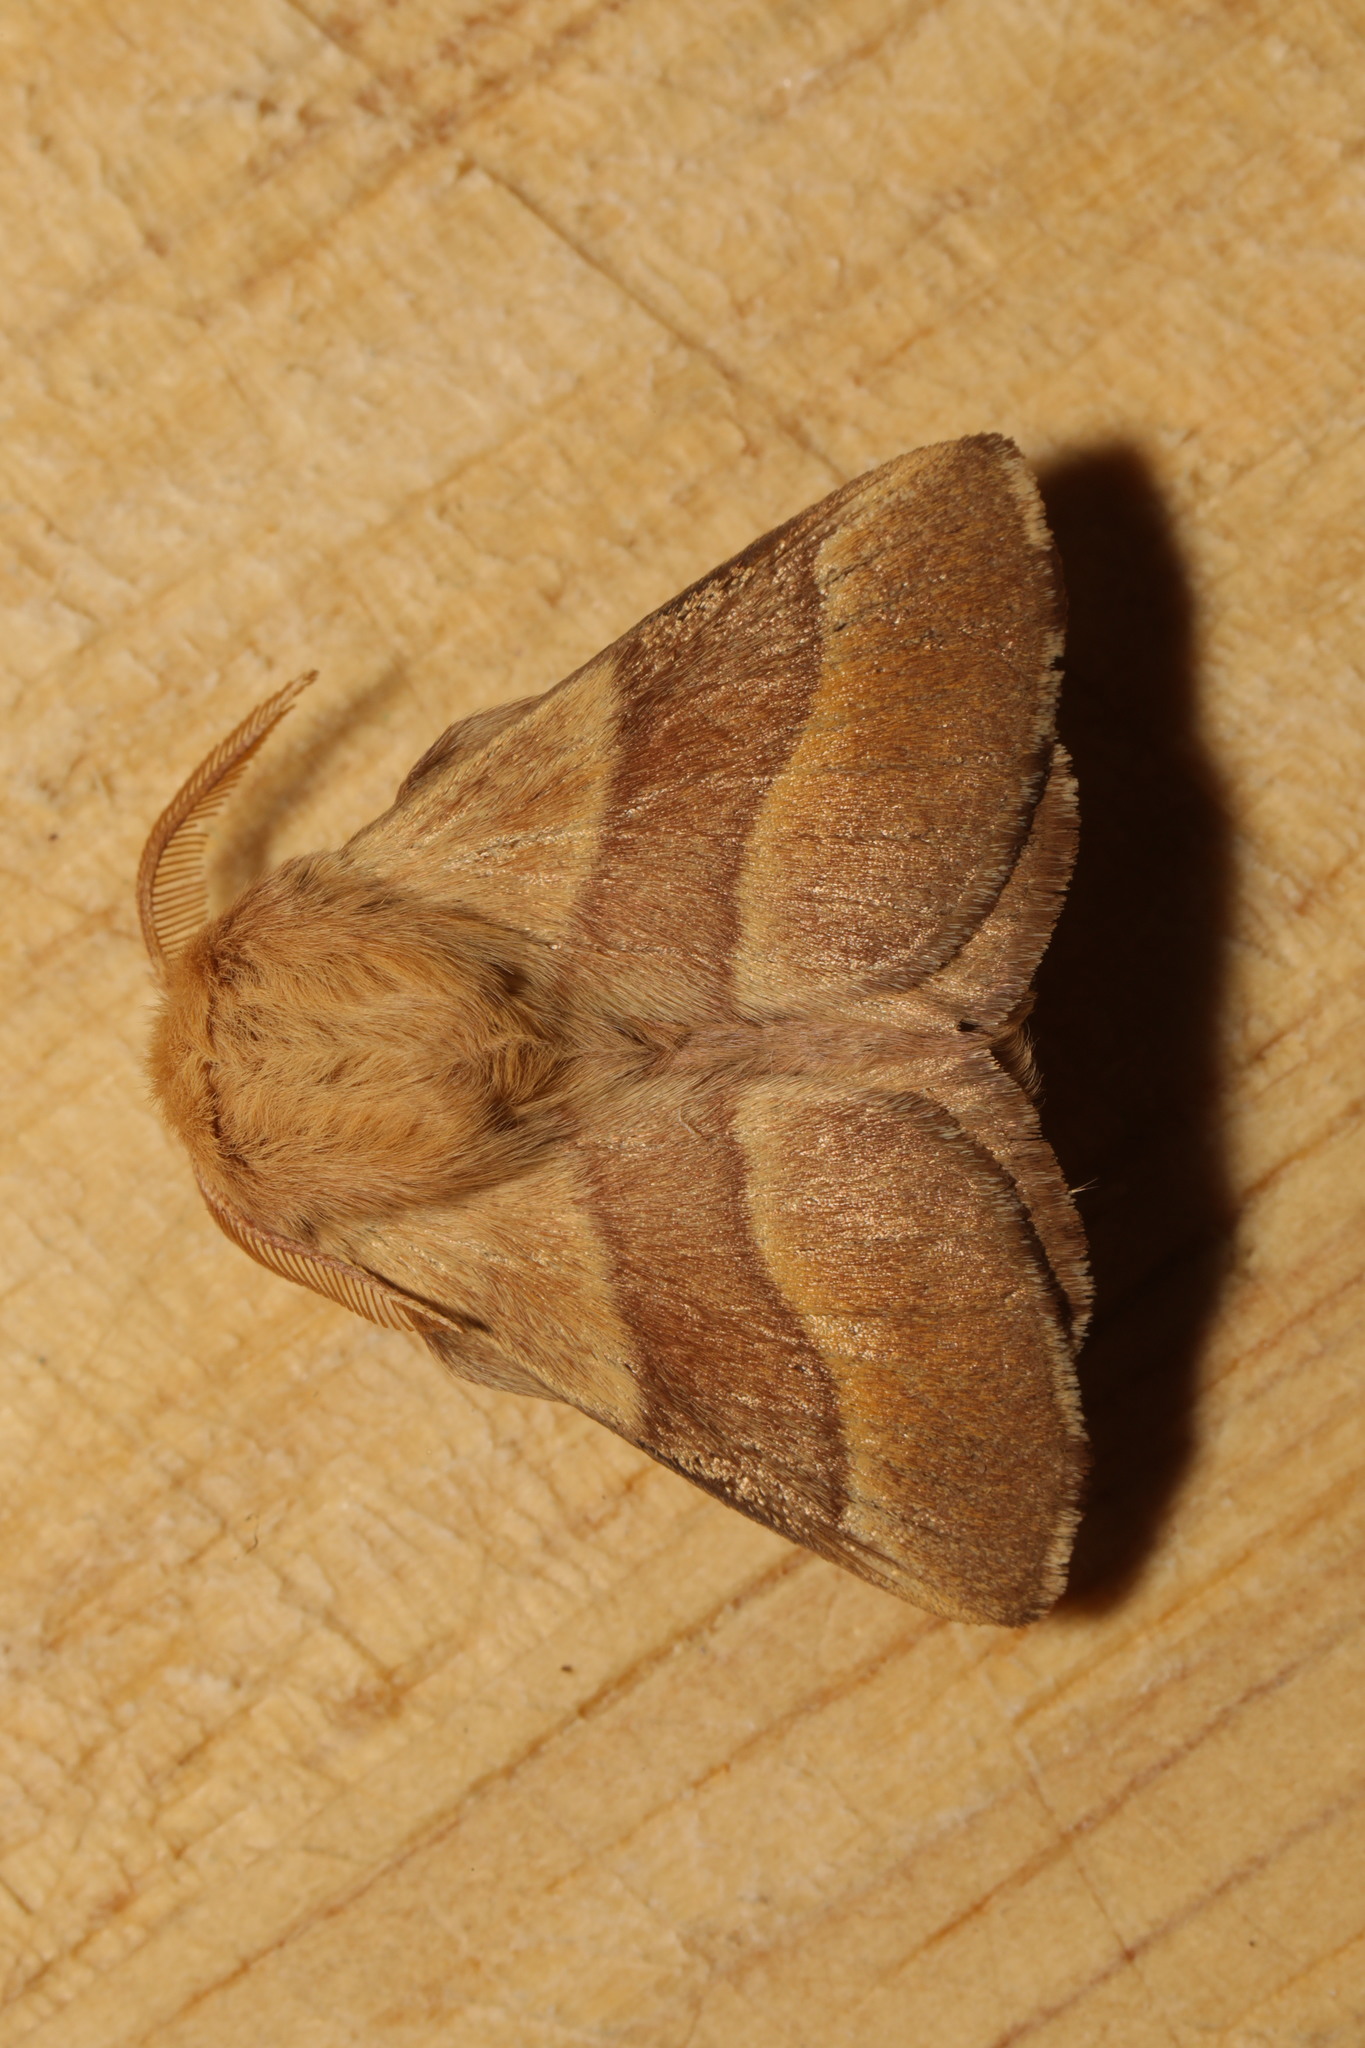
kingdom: Animalia
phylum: Arthropoda
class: Insecta
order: Lepidoptera
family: Lasiocampidae
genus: Malacosoma
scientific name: Malacosoma neustria
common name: The lackey
